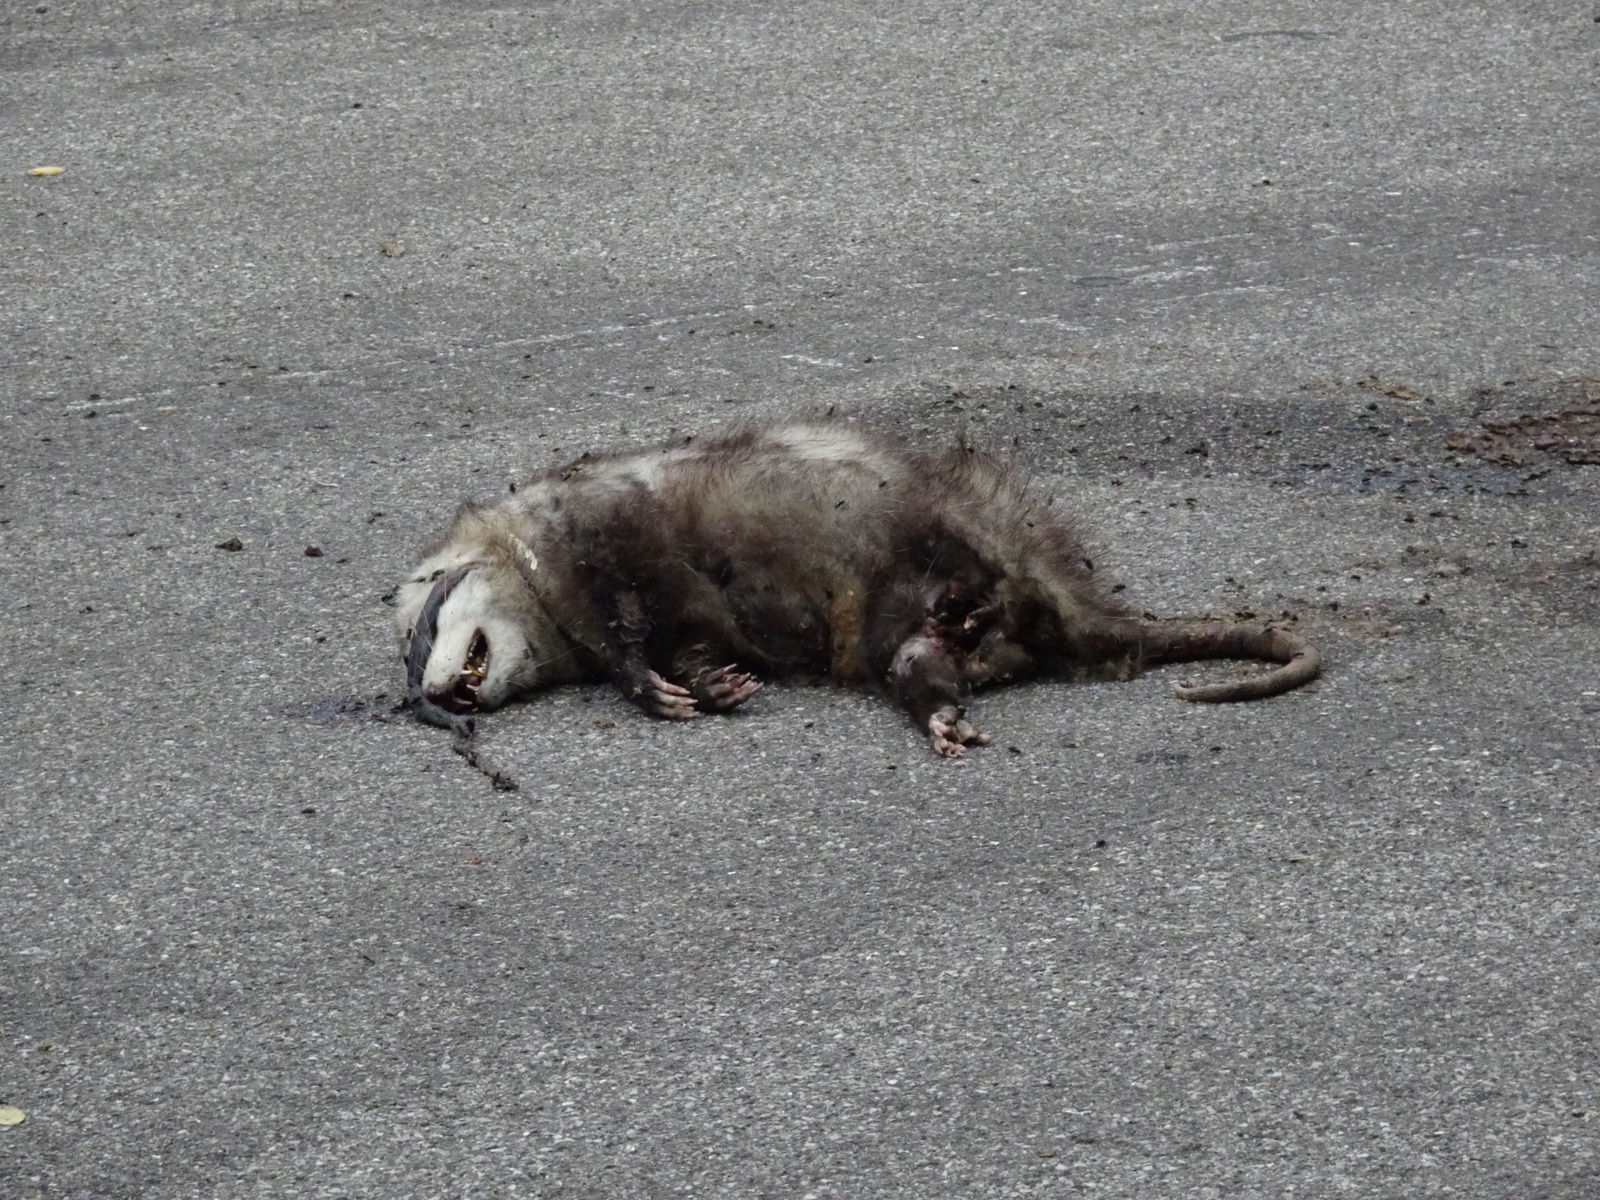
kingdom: Animalia
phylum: Chordata
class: Mammalia
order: Didelphimorphia
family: Didelphidae
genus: Didelphis
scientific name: Didelphis virginiana
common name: Virginia opossum
